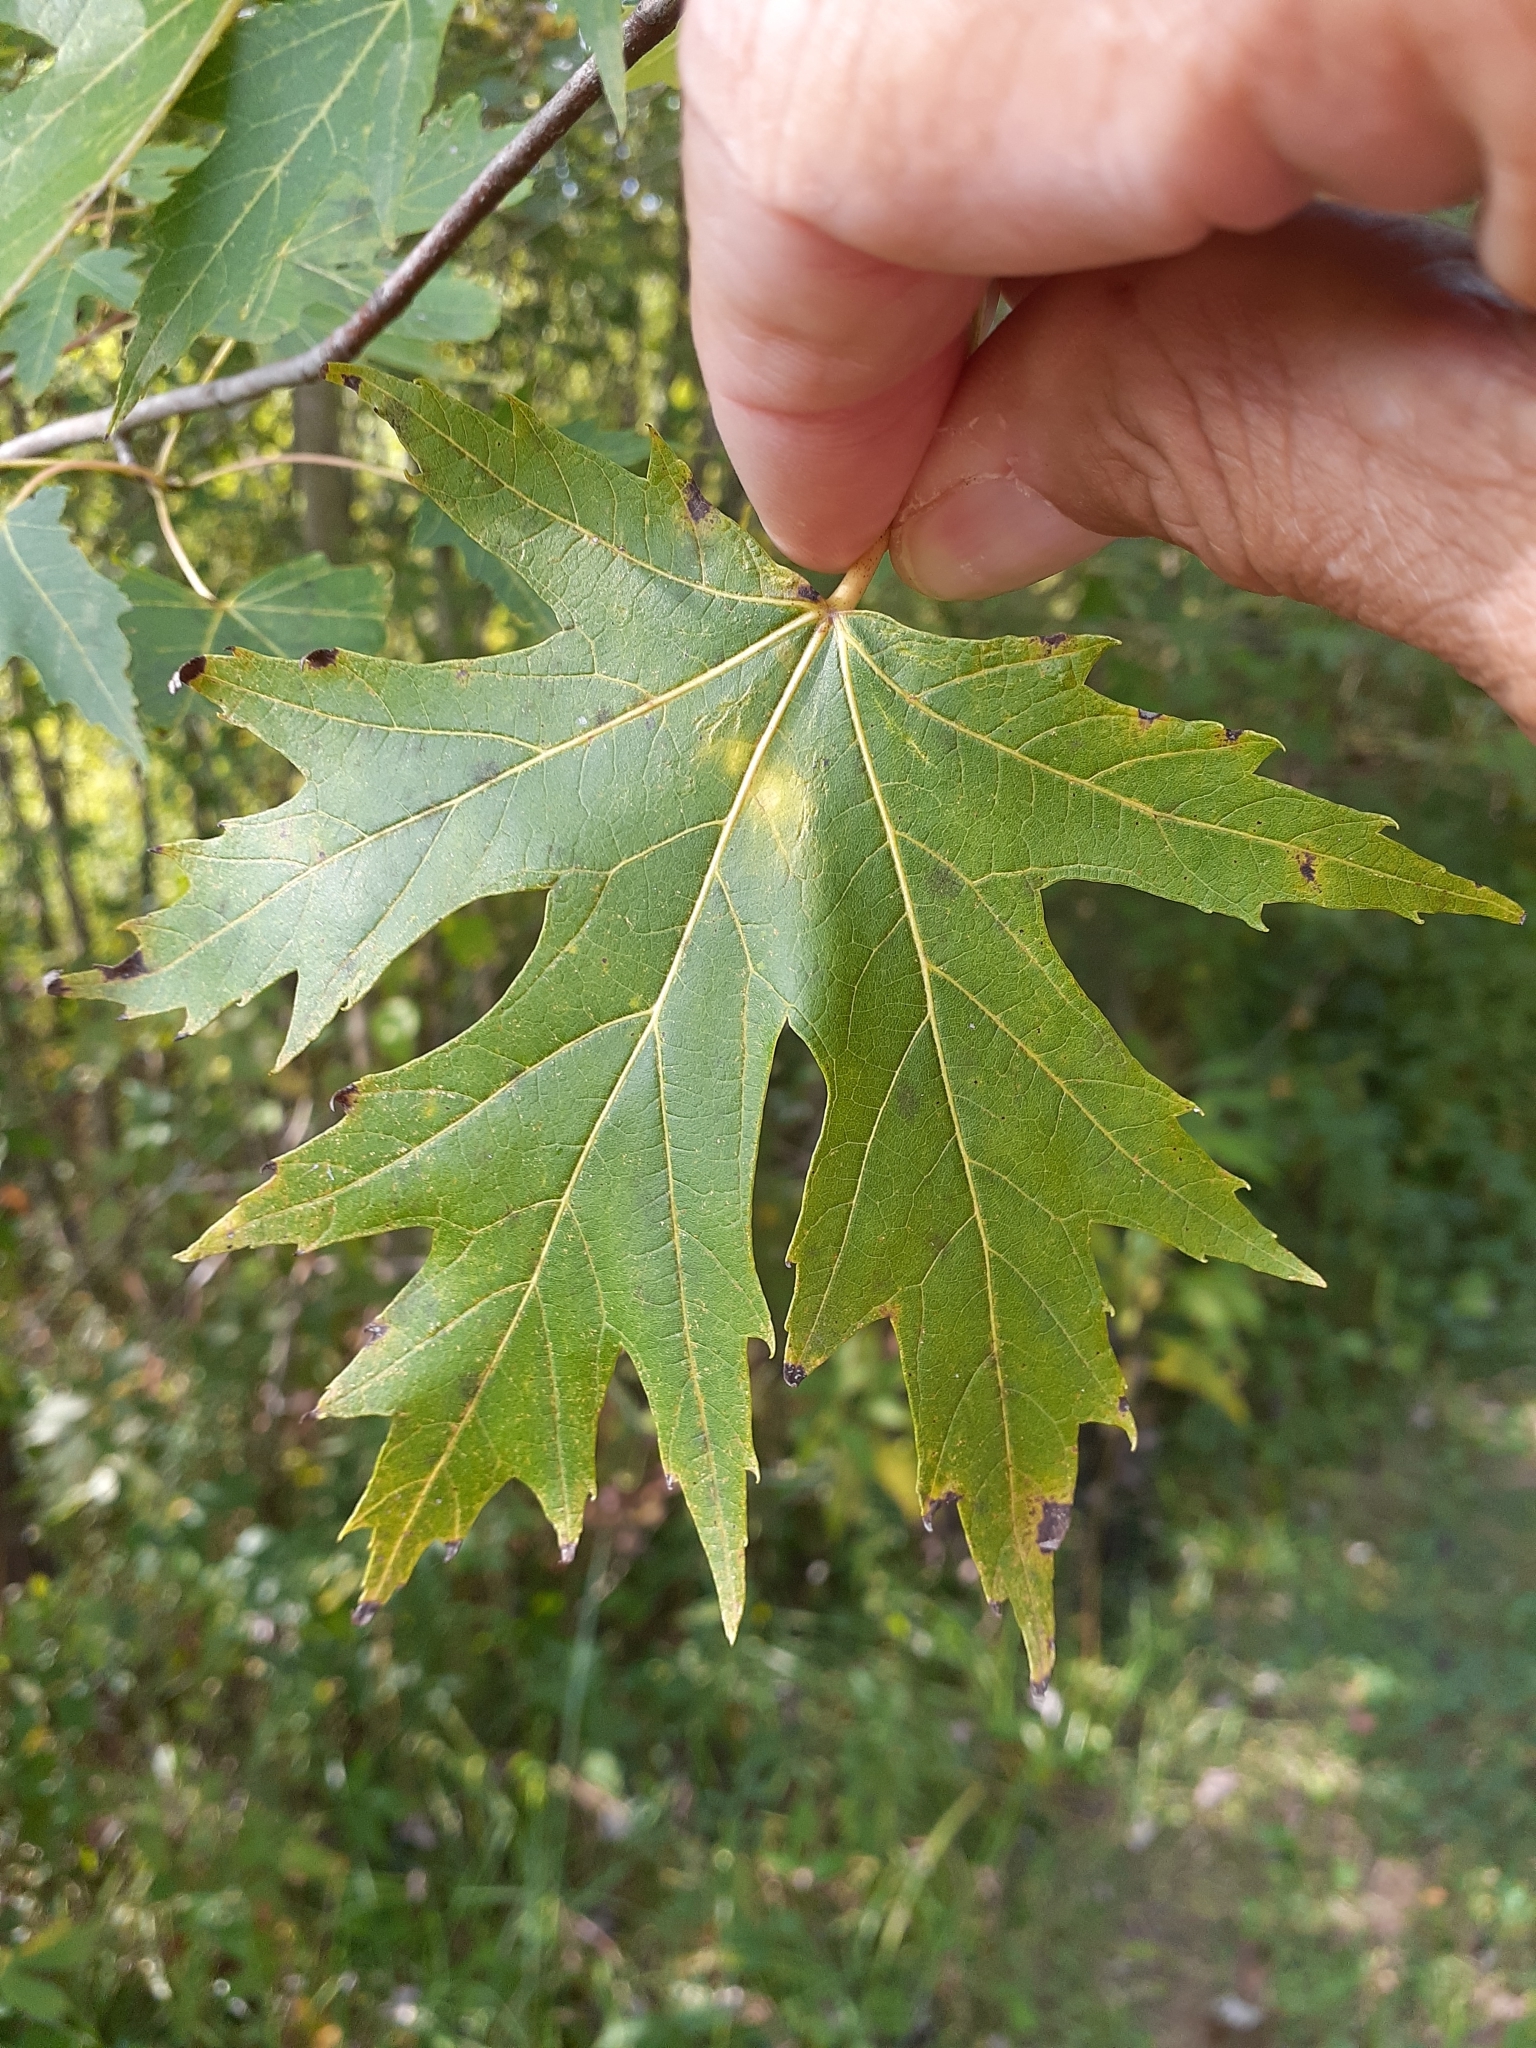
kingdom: Plantae
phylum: Tracheophyta
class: Magnoliopsida
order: Sapindales
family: Sapindaceae
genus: Acer
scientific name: Acer saccharinum
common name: Silver maple
